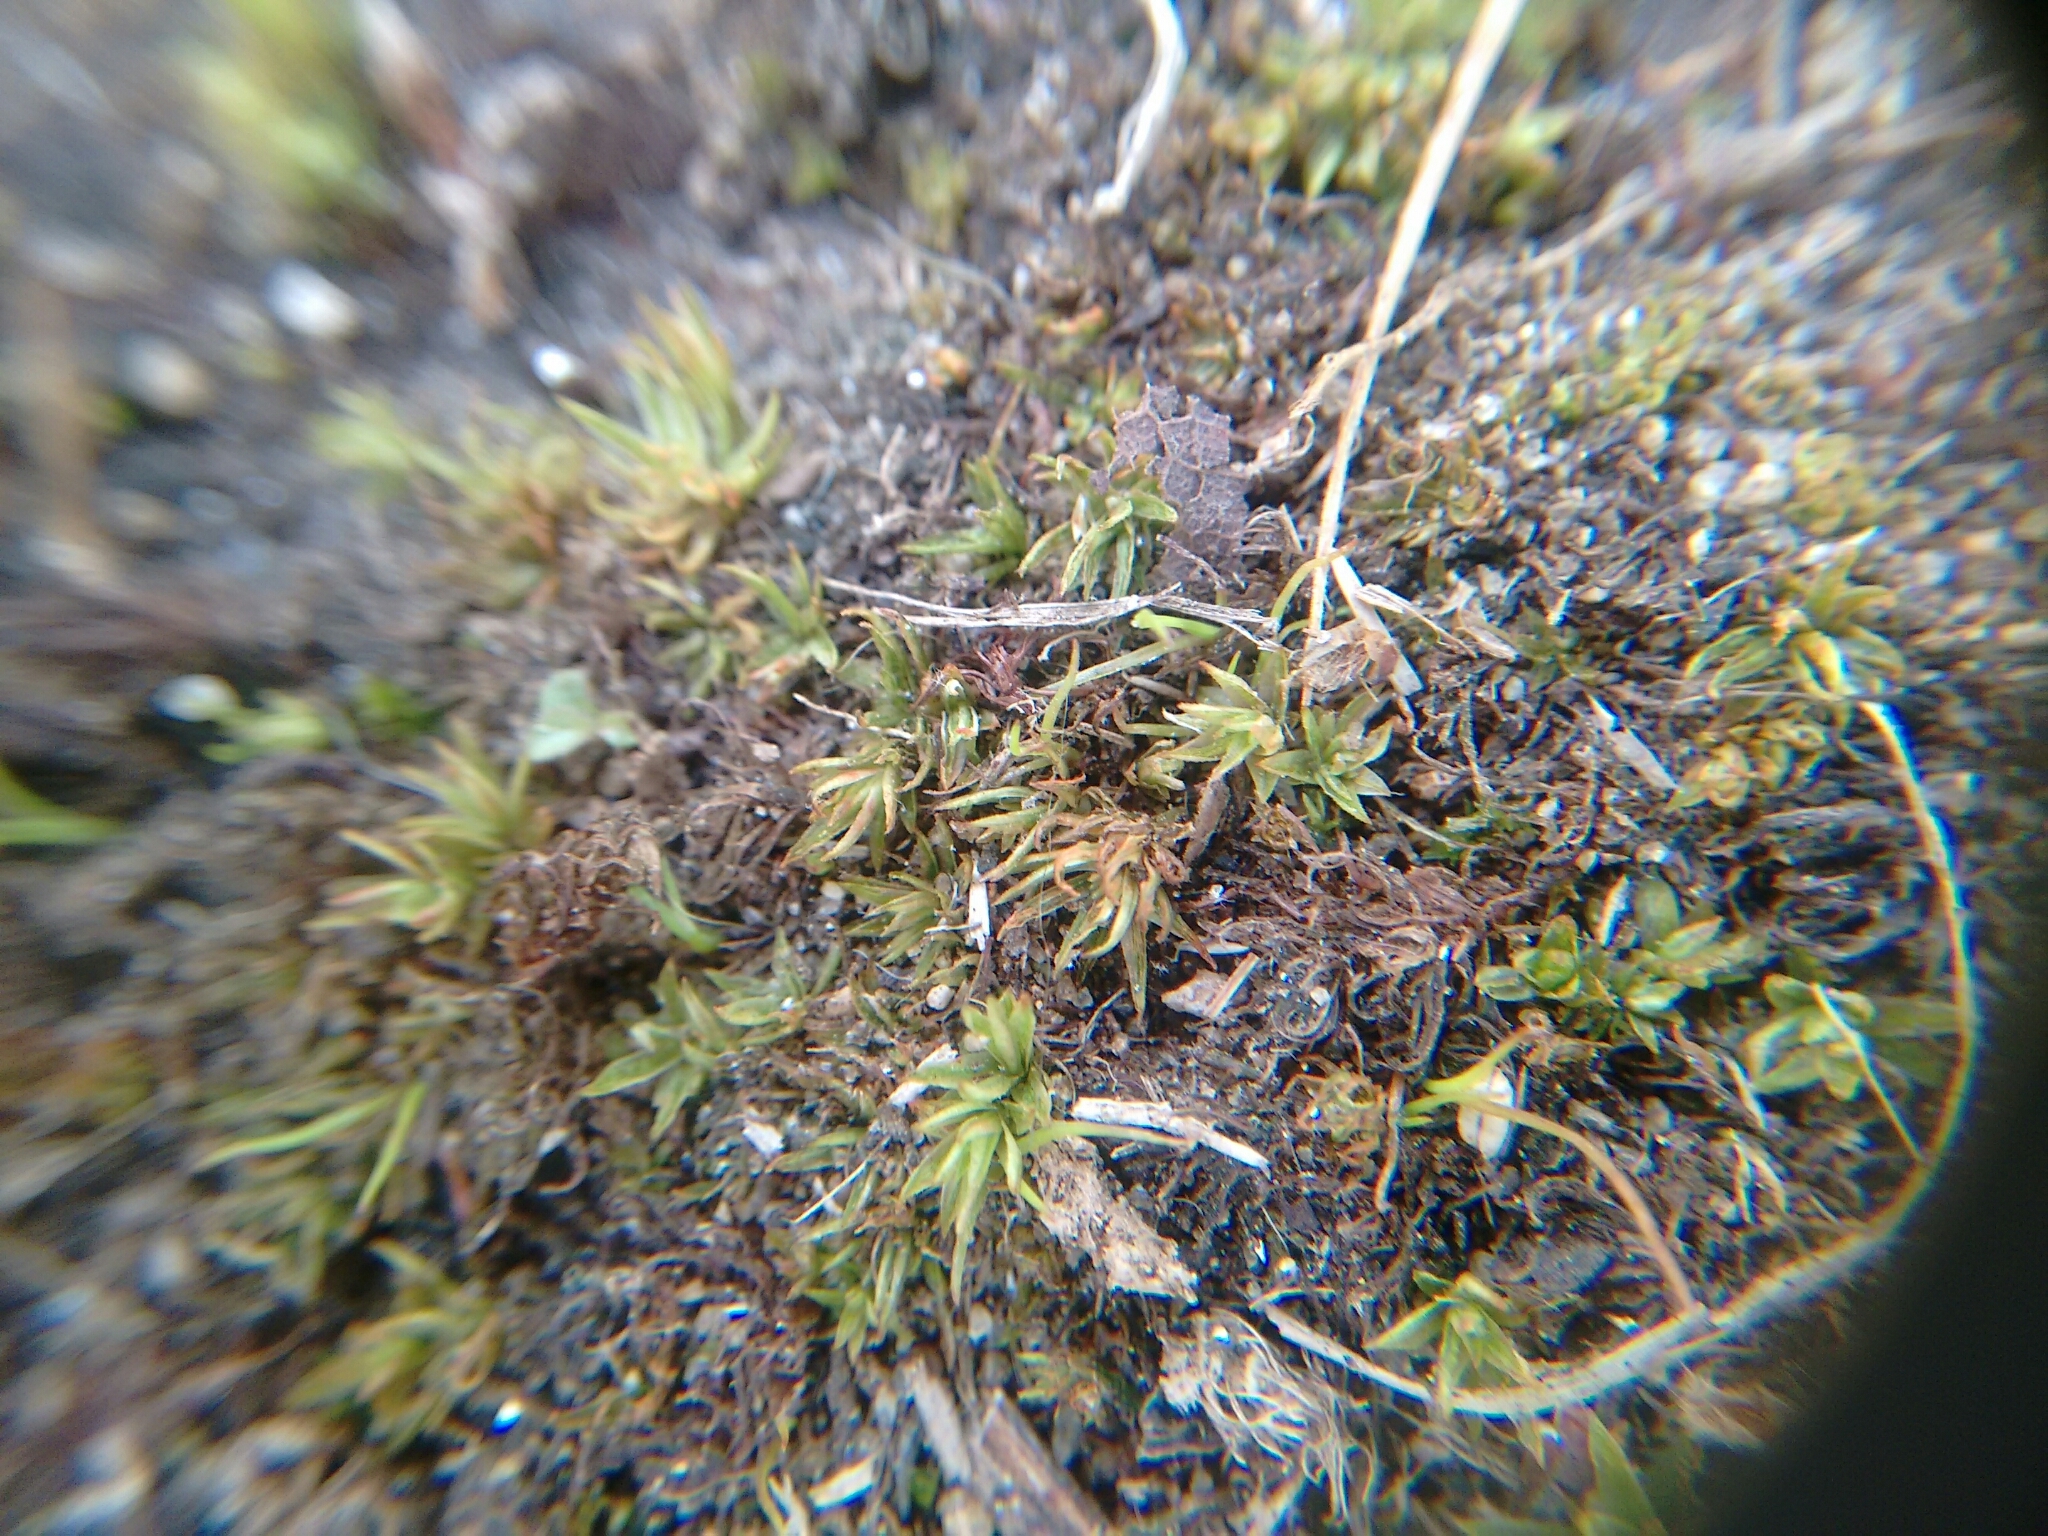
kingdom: Plantae
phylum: Bryophyta
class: Polytrichopsida
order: Polytrichales
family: Polytrichaceae
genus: Atrichum
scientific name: Atrichum angustatum
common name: Lesser smoothcap
